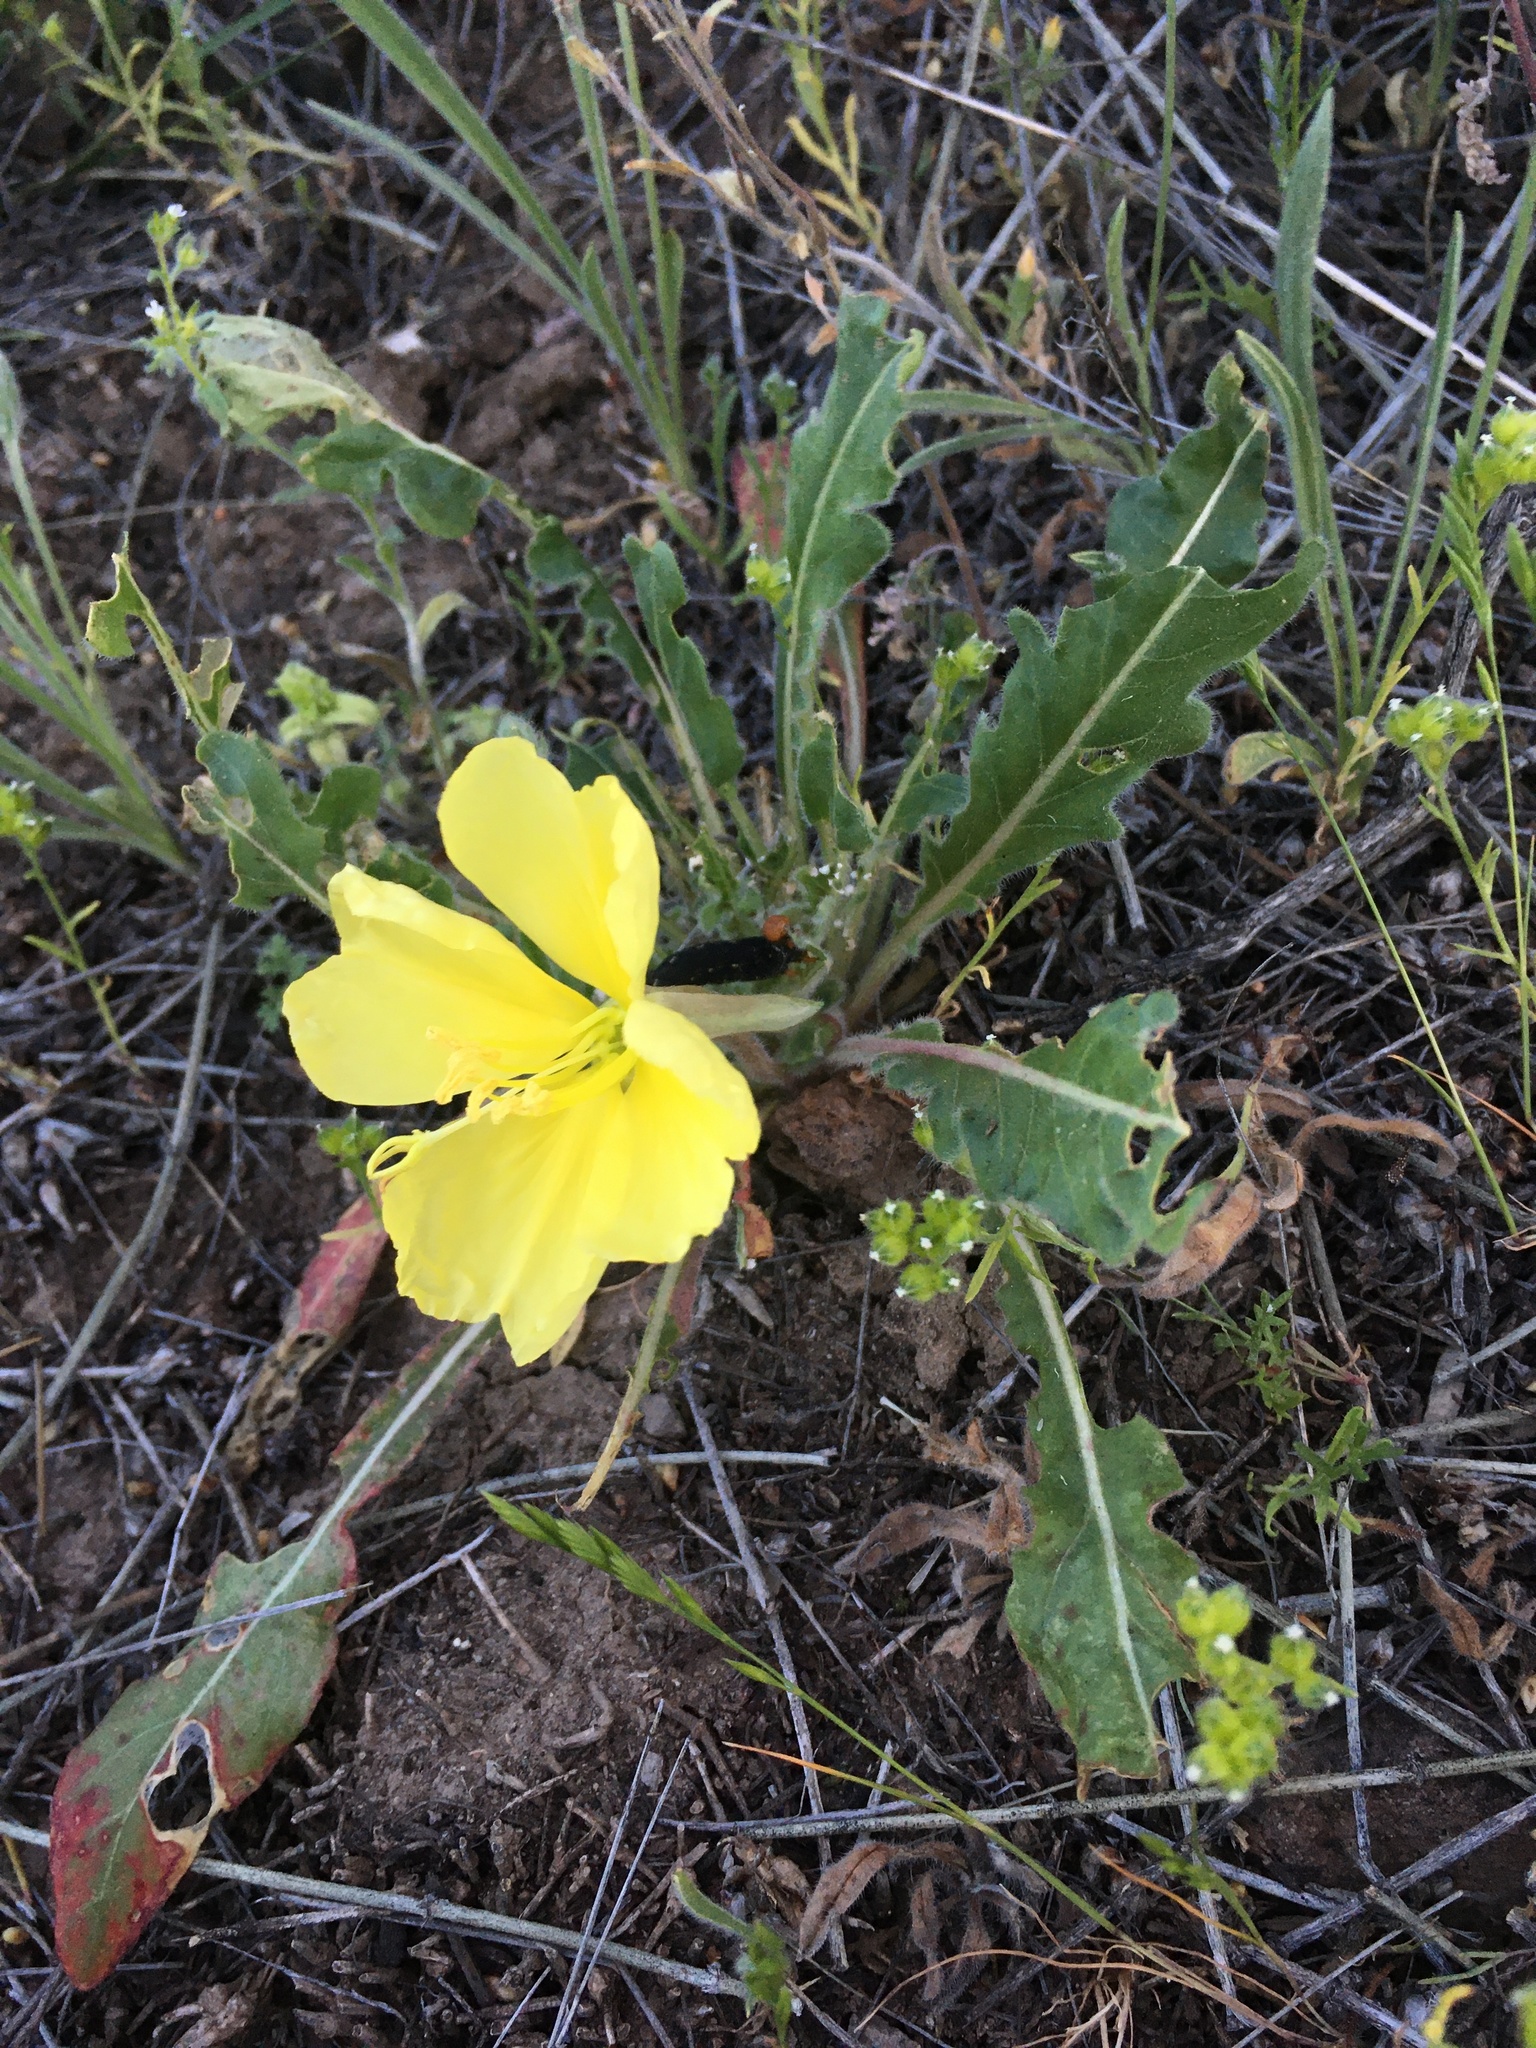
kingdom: Plantae
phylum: Tracheophyta
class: Magnoliopsida
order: Myrtales
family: Onagraceae
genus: Oenothera
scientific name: Oenothera primiveris
